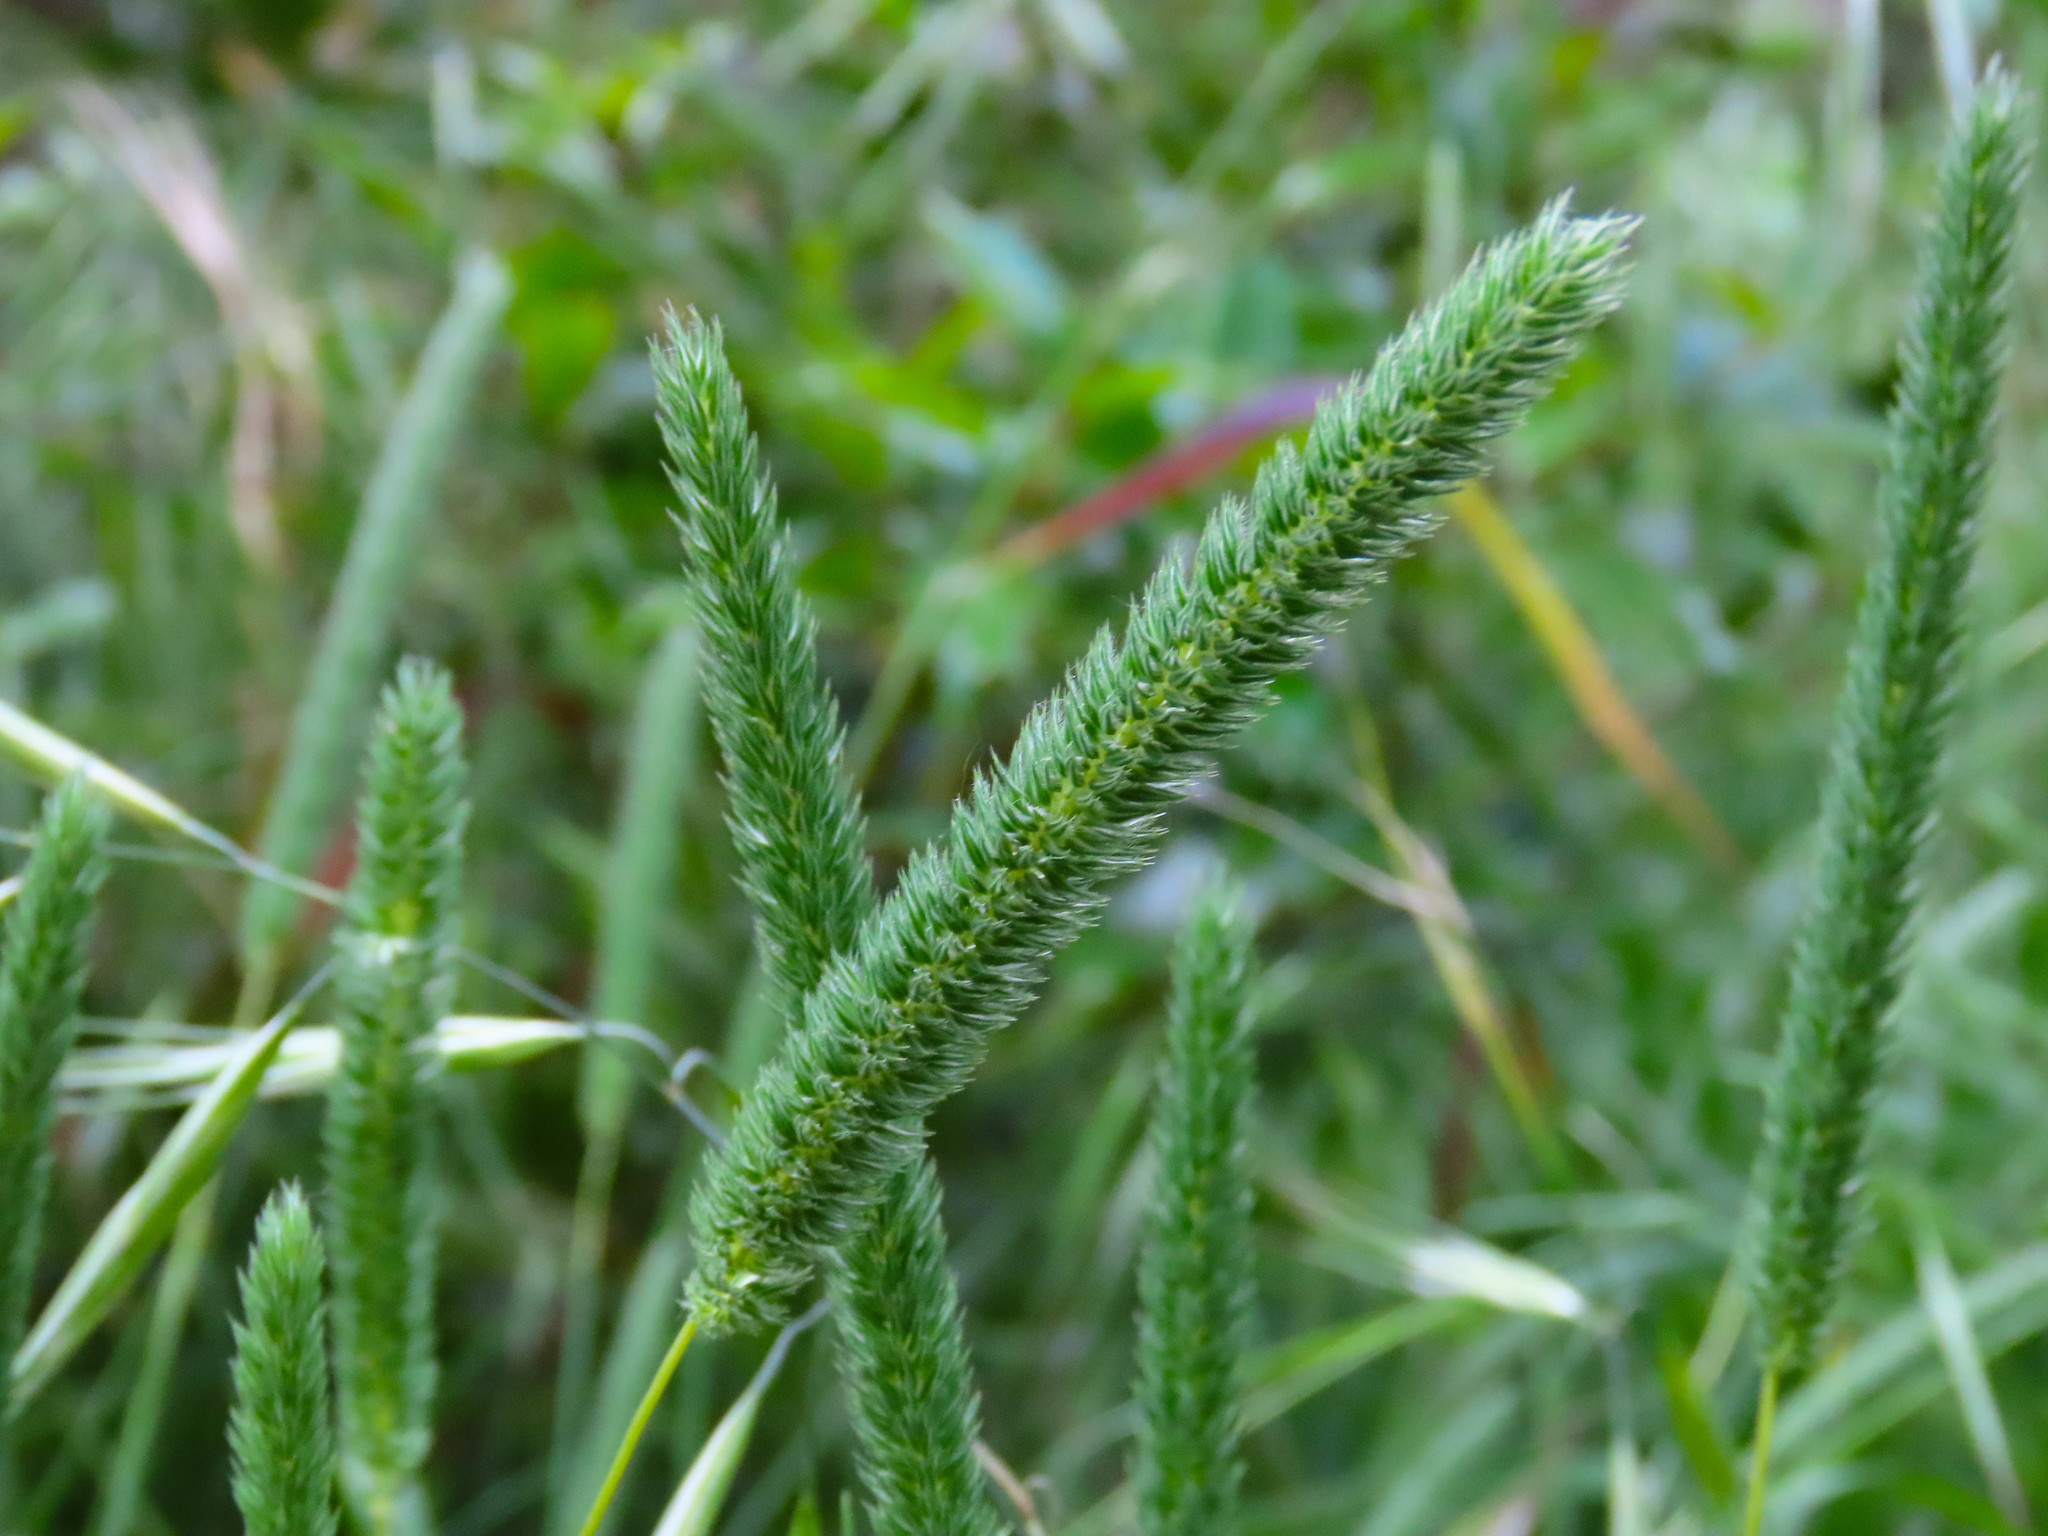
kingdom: Plantae
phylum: Tracheophyta
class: Liliopsida
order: Poales
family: Poaceae
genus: Phleum
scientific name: Phleum pratense
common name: Timothy grass
